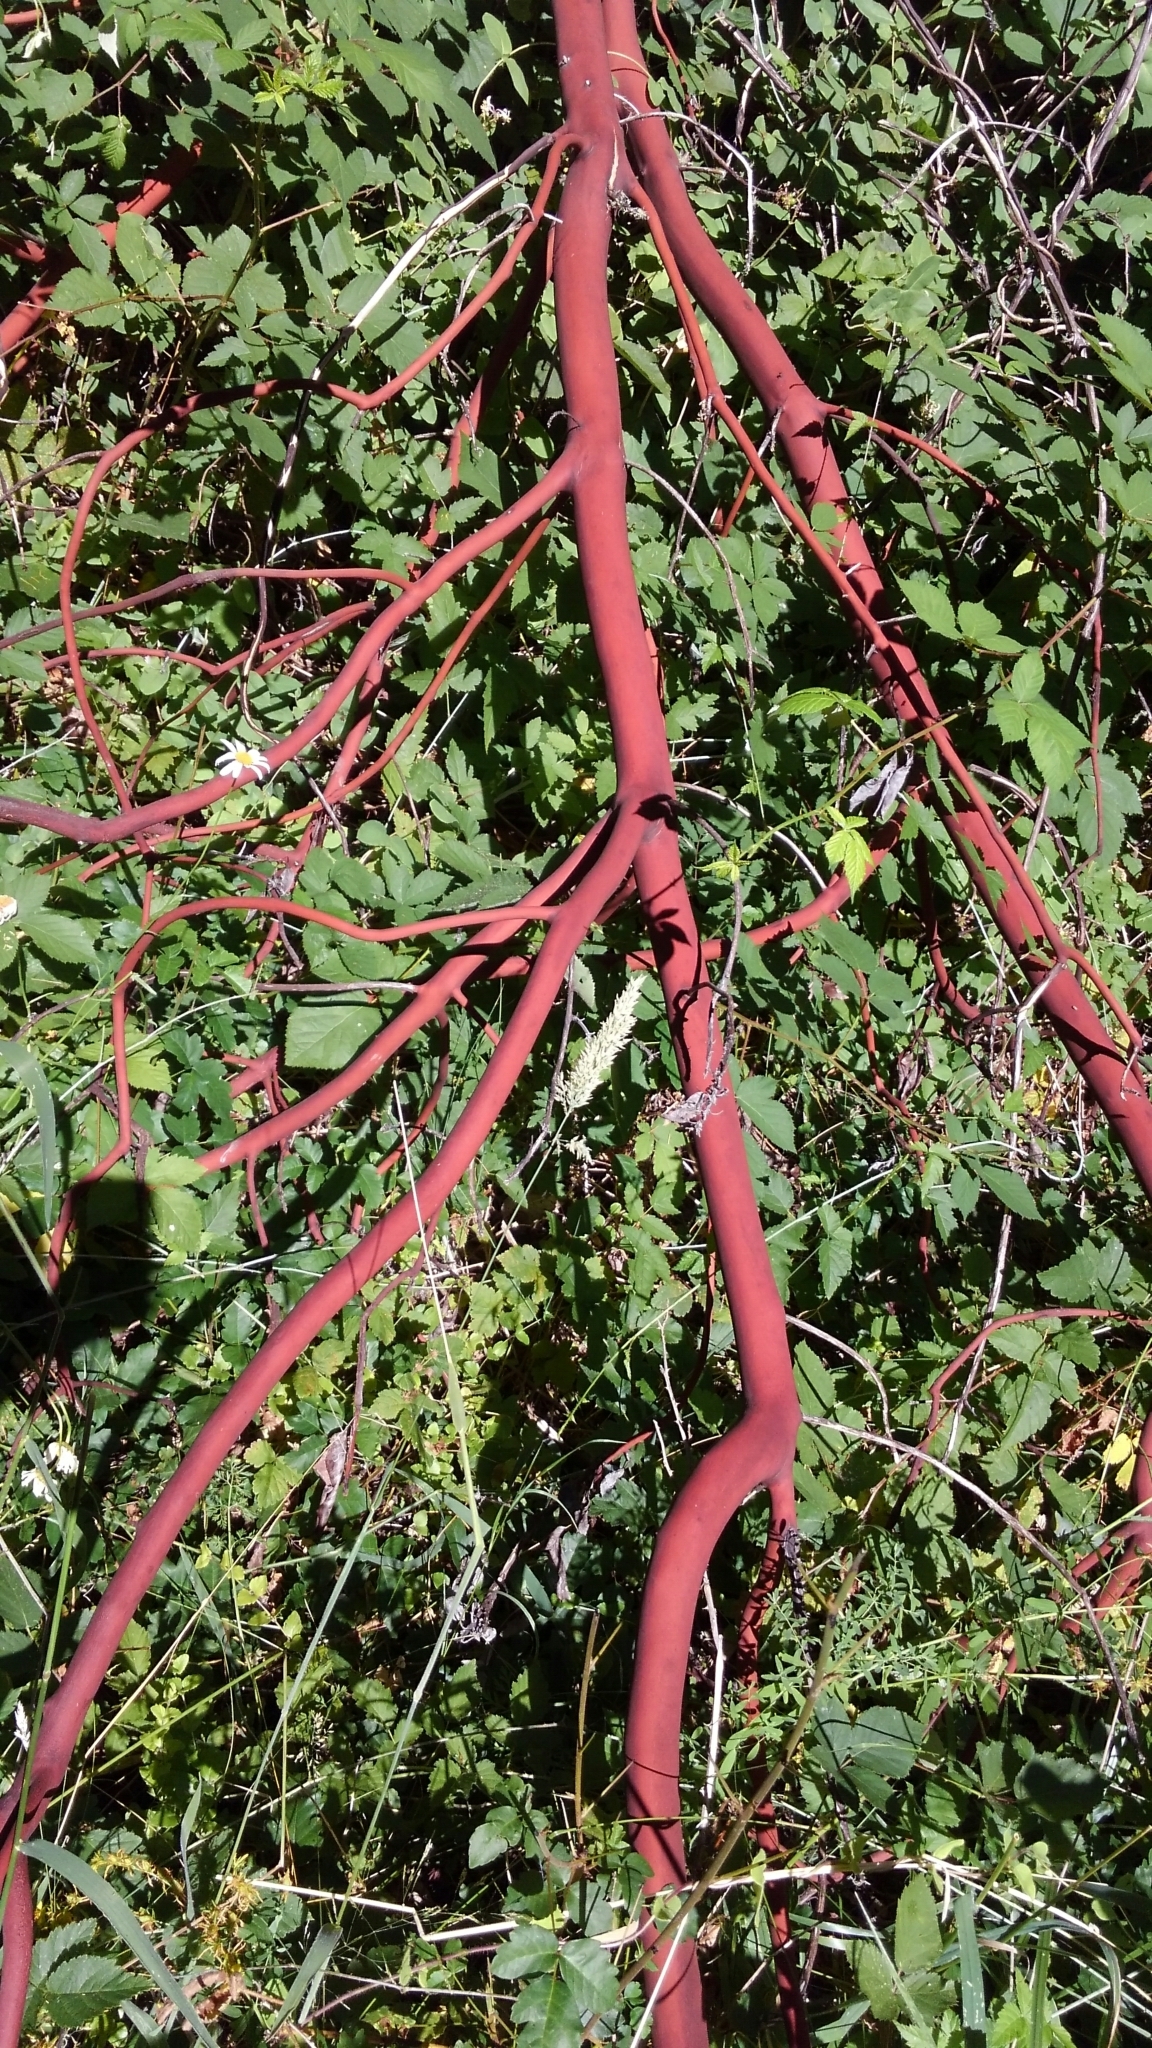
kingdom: Plantae
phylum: Tracheophyta
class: Magnoliopsida
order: Ericales
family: Ericaceae
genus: Arbutus
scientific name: Arbutus menziesii
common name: Pacific madrone
